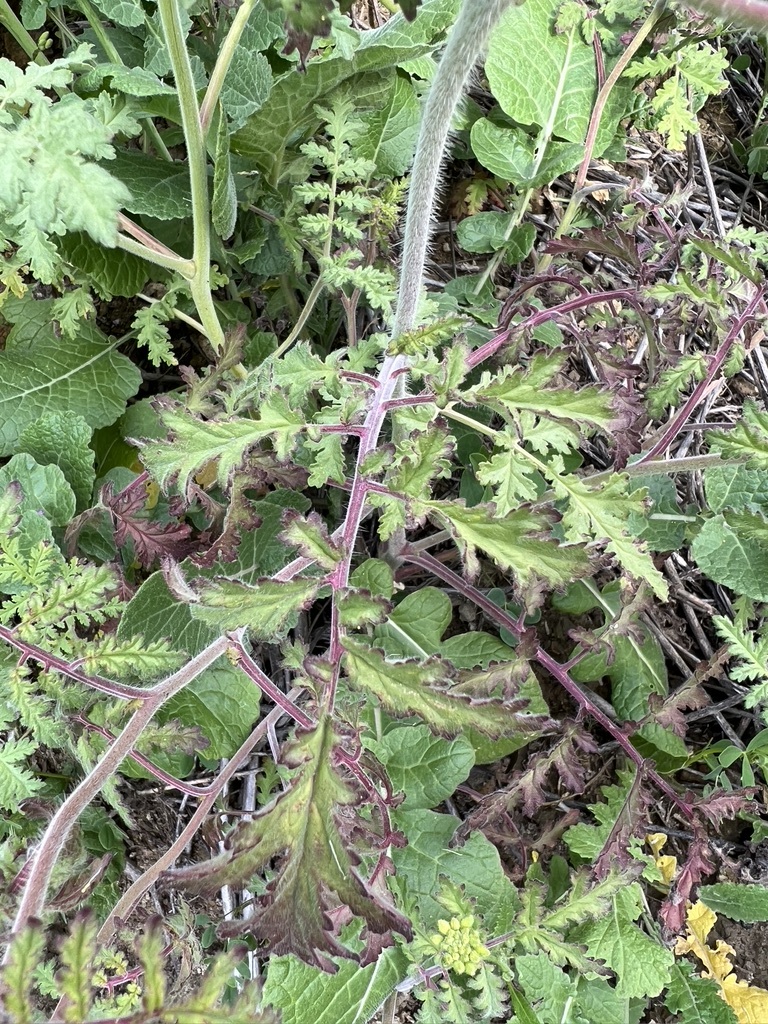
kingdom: Plantae
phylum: Tracheophyta
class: Magnoliopsida
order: Boraginales
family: Hydrophyllaceae
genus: Phacelia
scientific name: Phacelia hubbyi
